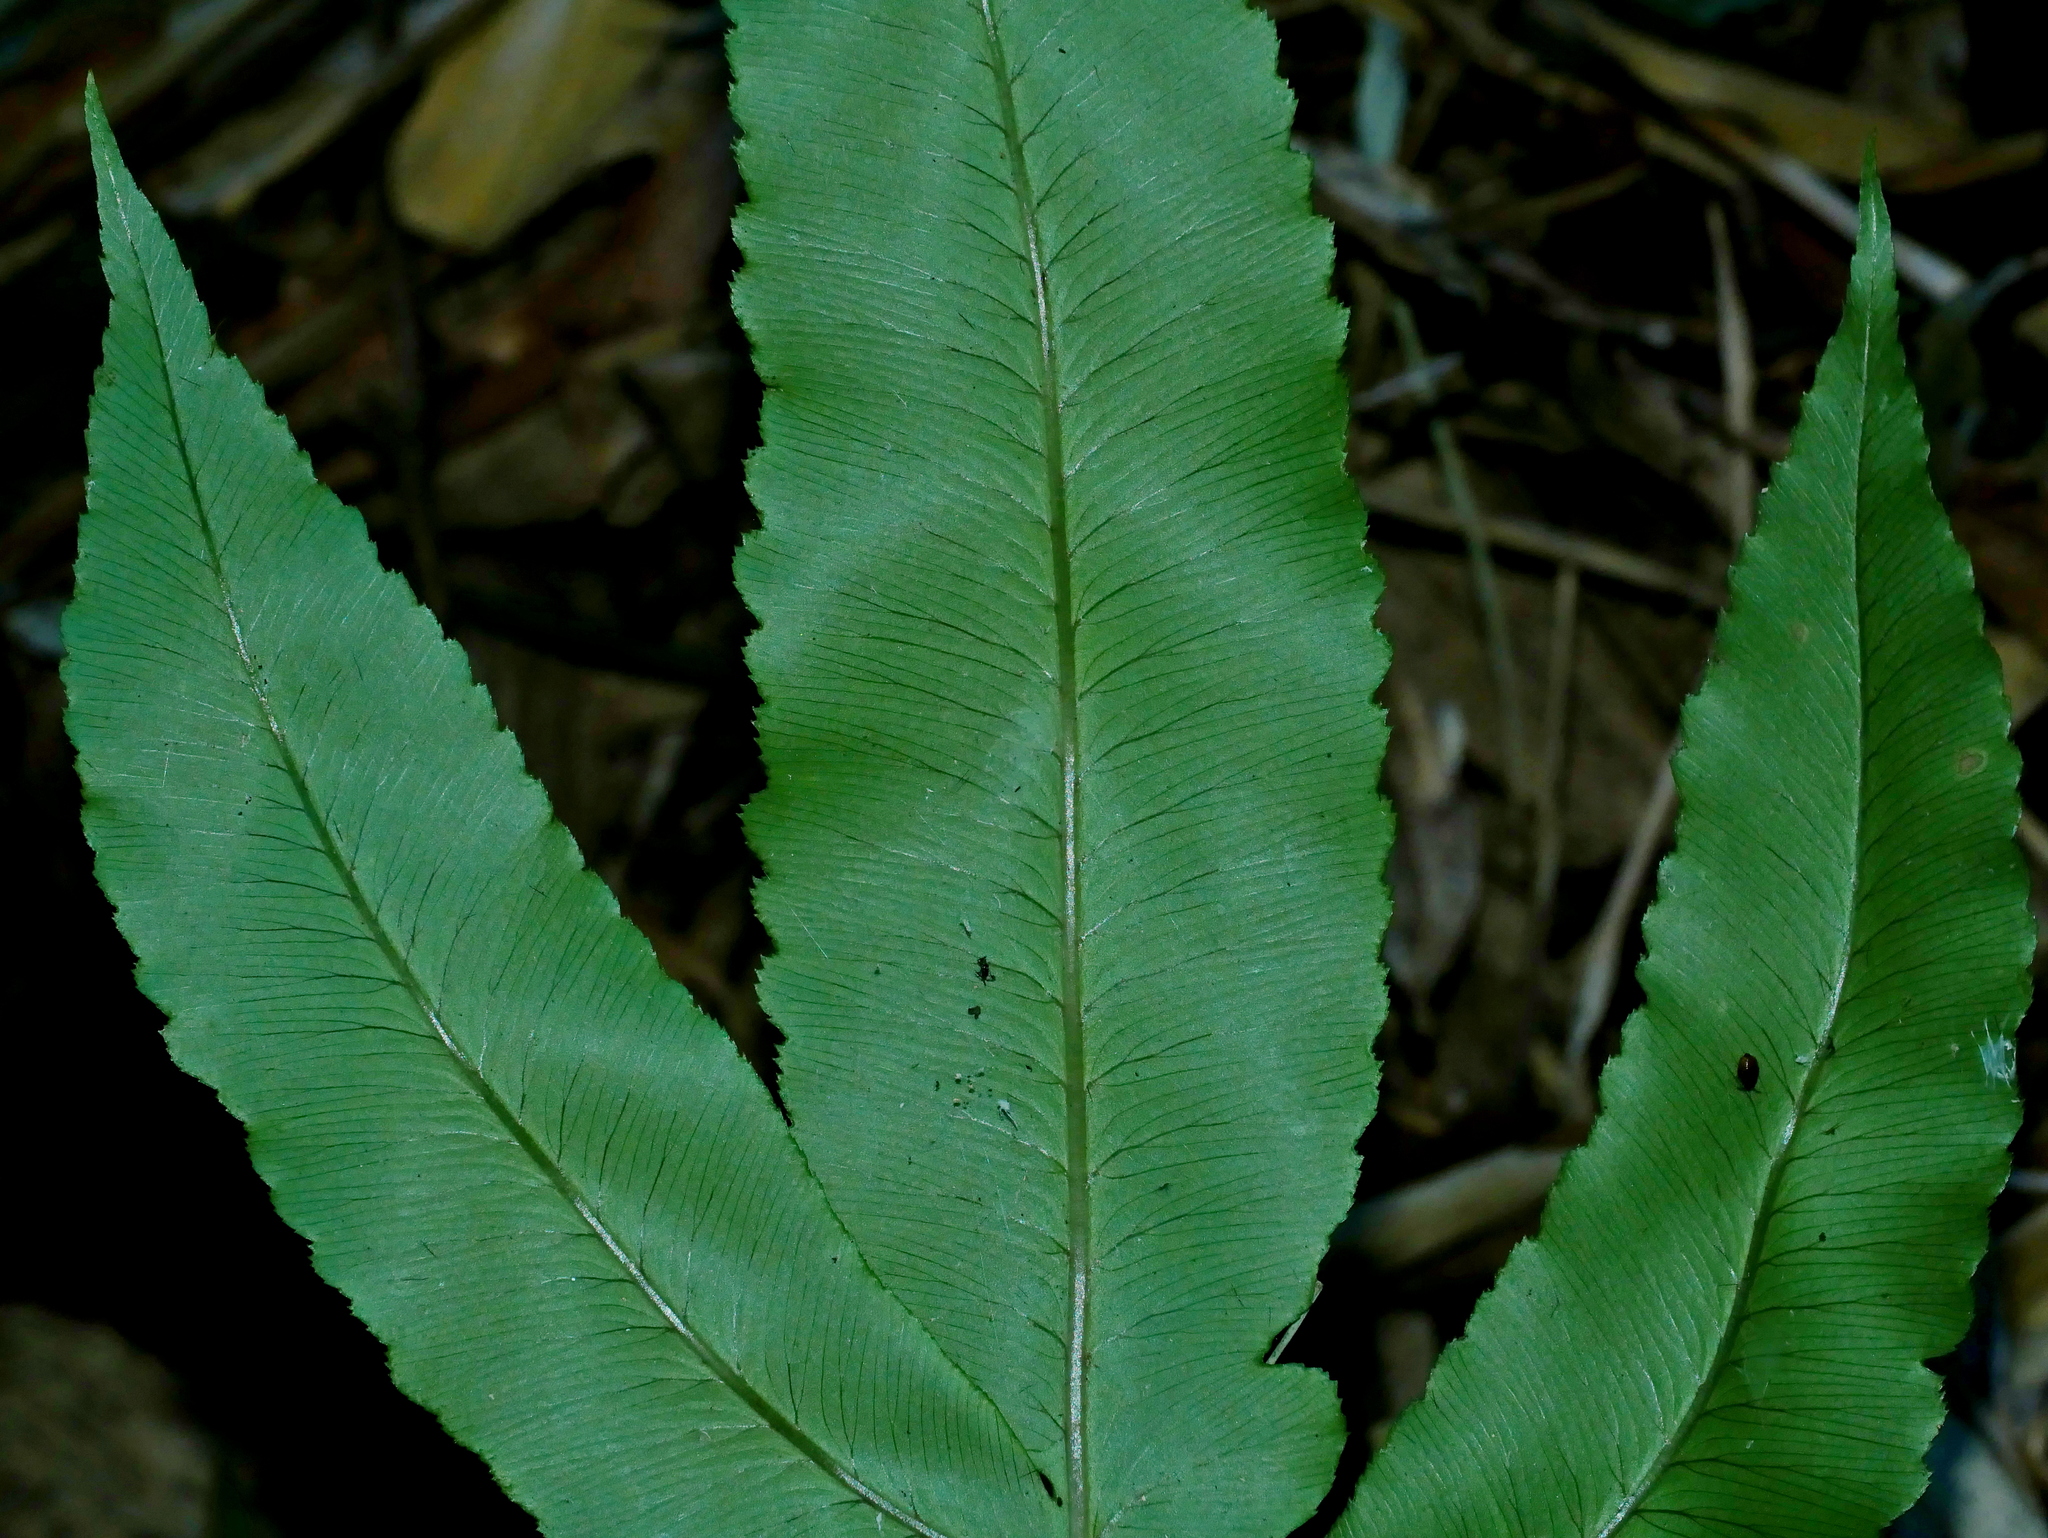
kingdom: Plantae
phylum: Tracheophyta
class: Polypodiopsida
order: Polypodiales
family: Dryopteridaceae
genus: Dryopteris
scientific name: Dryopteris pseudosieboldii
